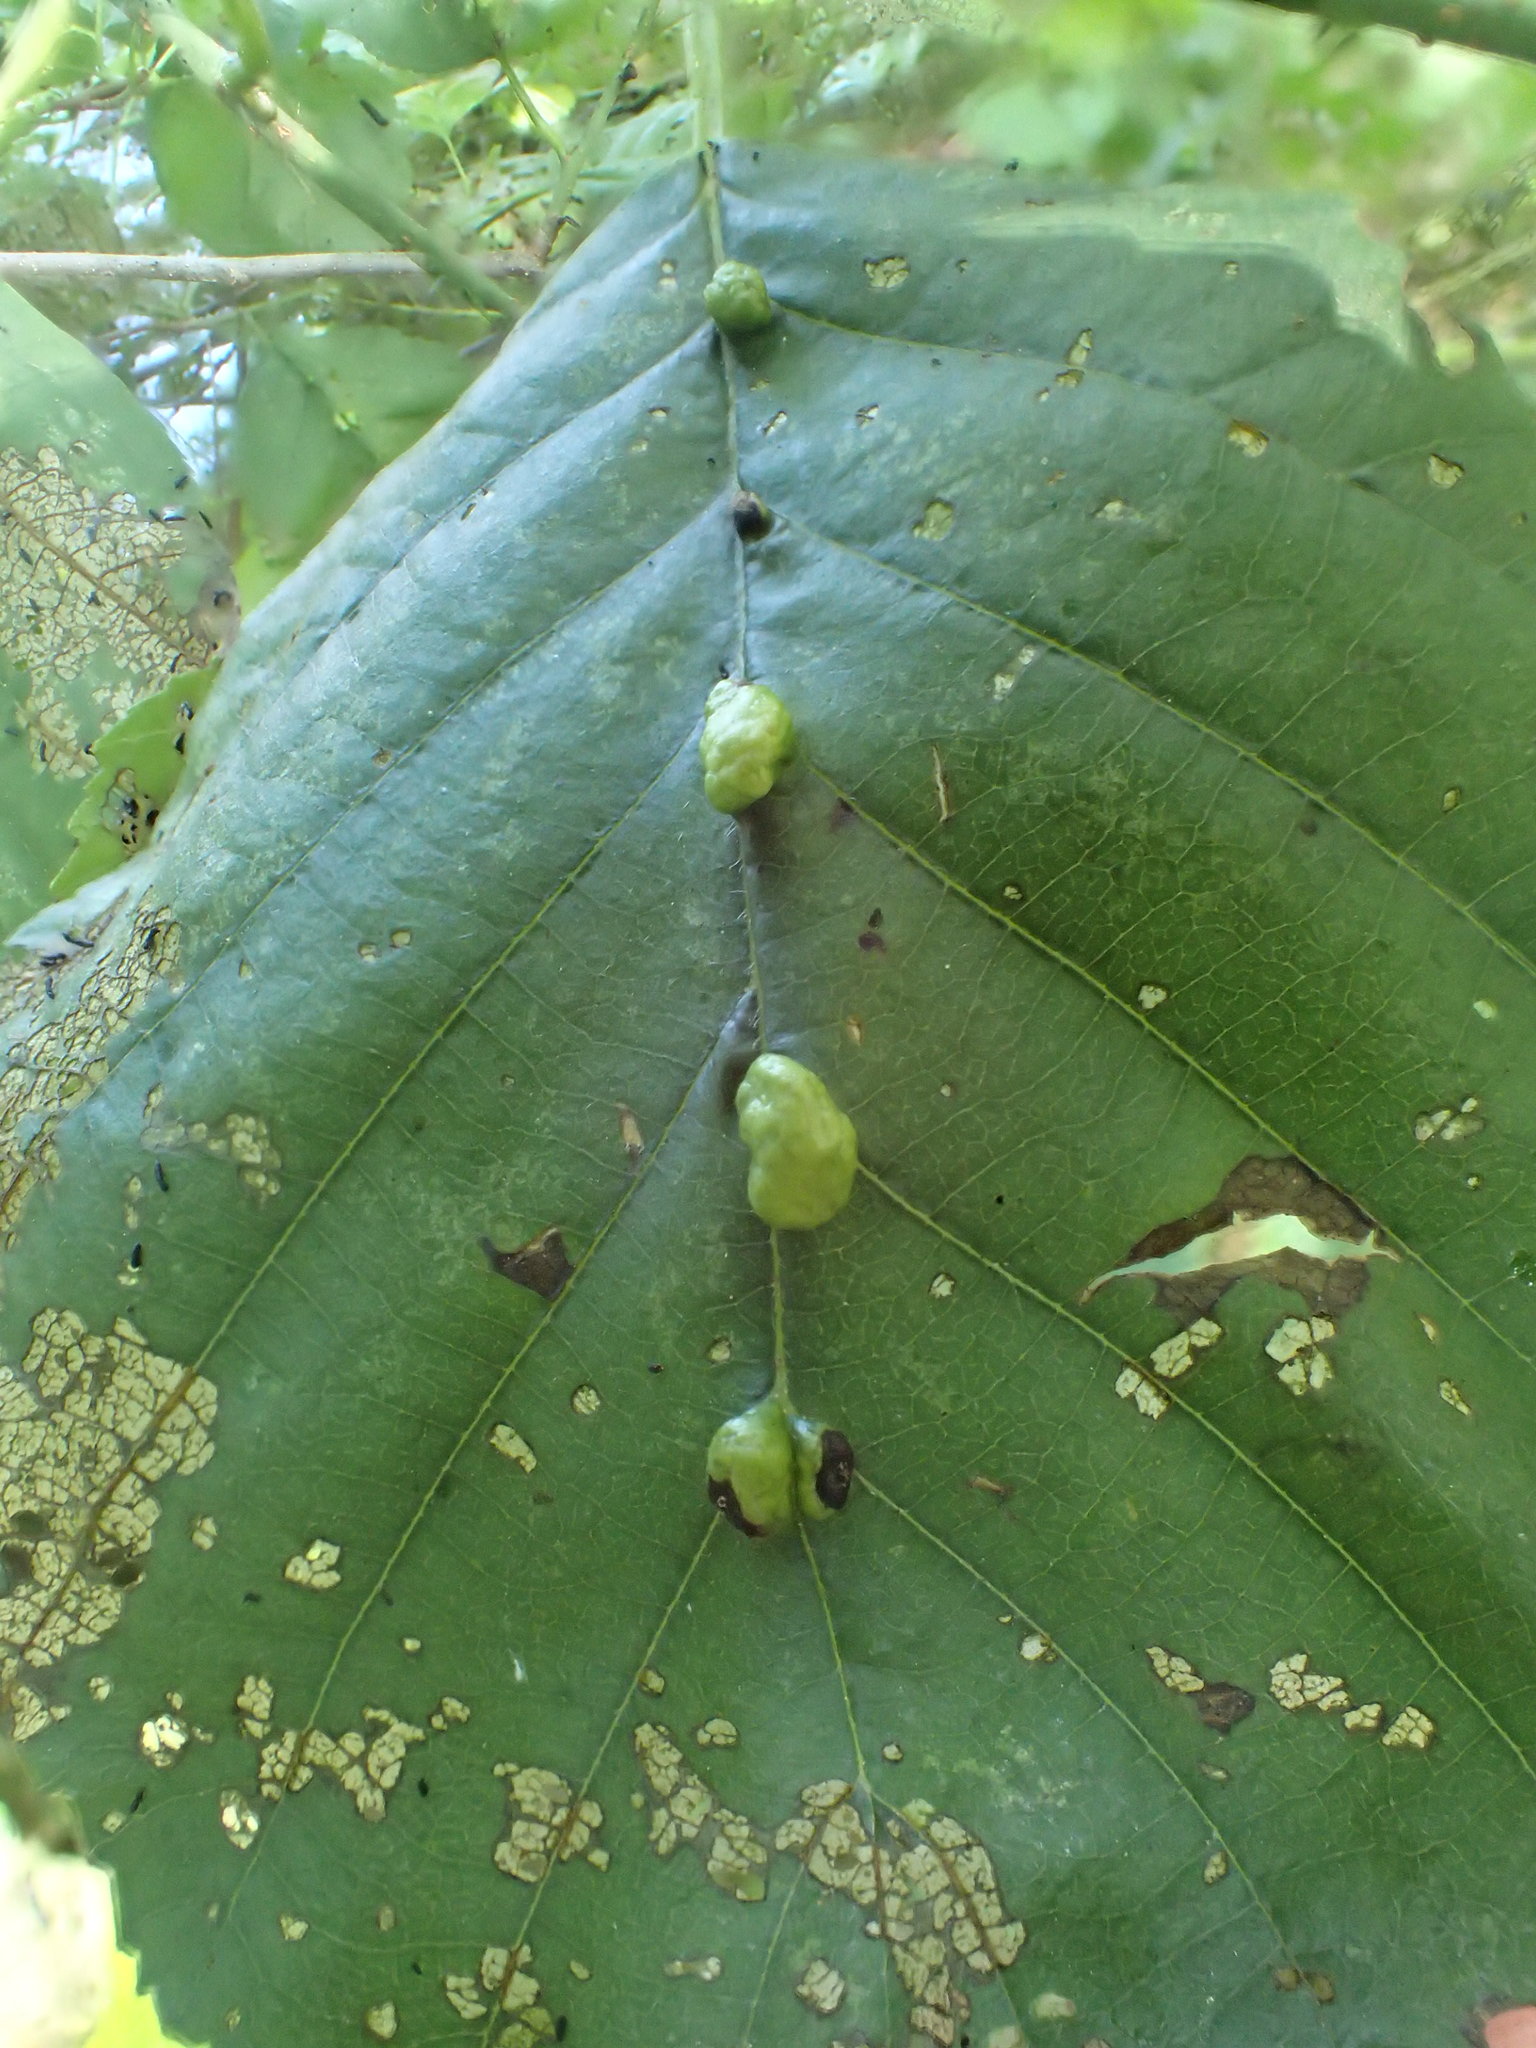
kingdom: Animalia
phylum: Arthropoda
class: Arachnida
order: Trombidiformes
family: Eriophyidae
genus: Eriophyes
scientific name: Eriophyes inangulis
